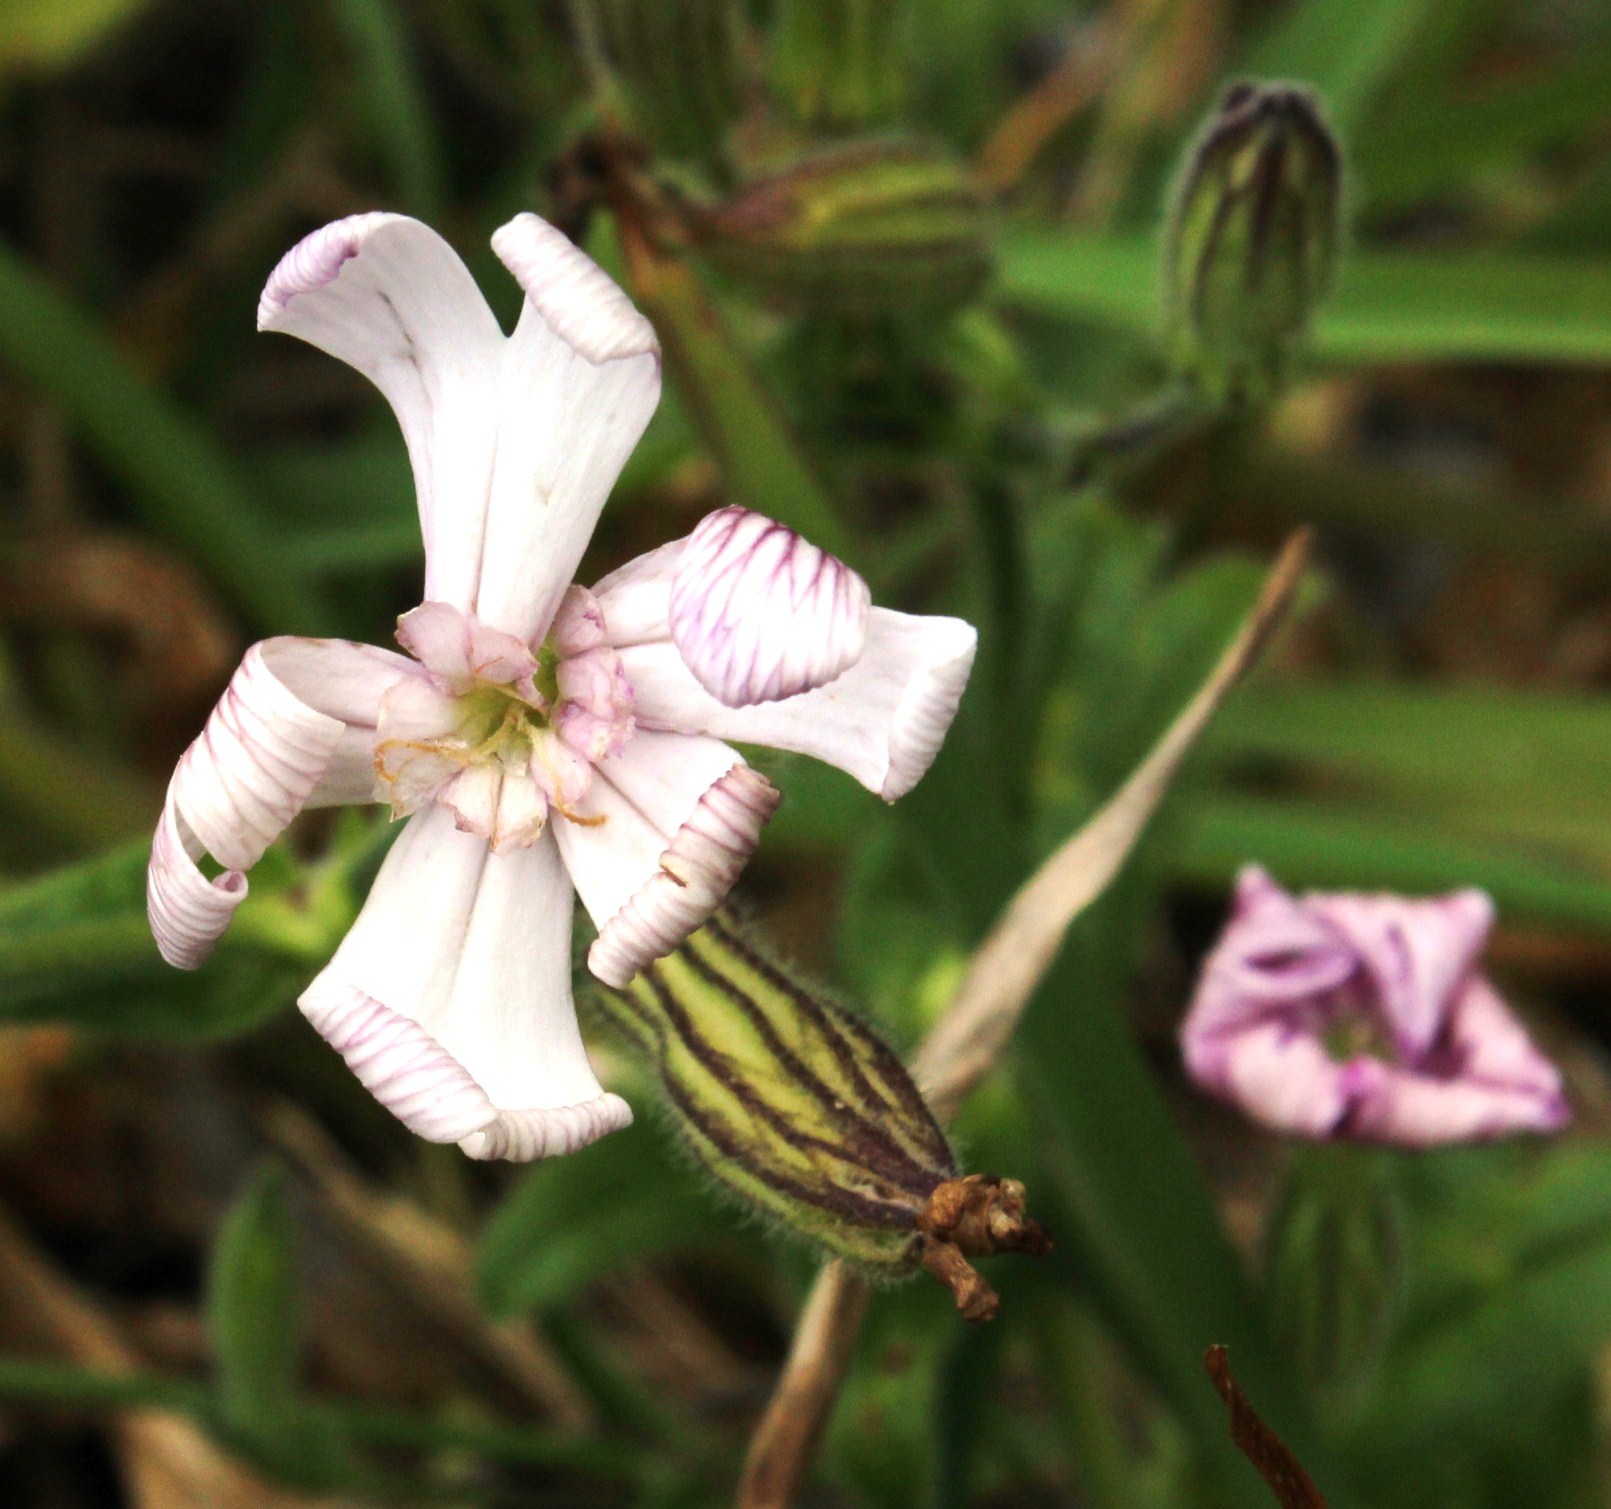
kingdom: Plantae
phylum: Tracheophyta
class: Magnoliopsida
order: Caryophyllales
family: Caryophyllaceae
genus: Silene
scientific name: Silene undulata
